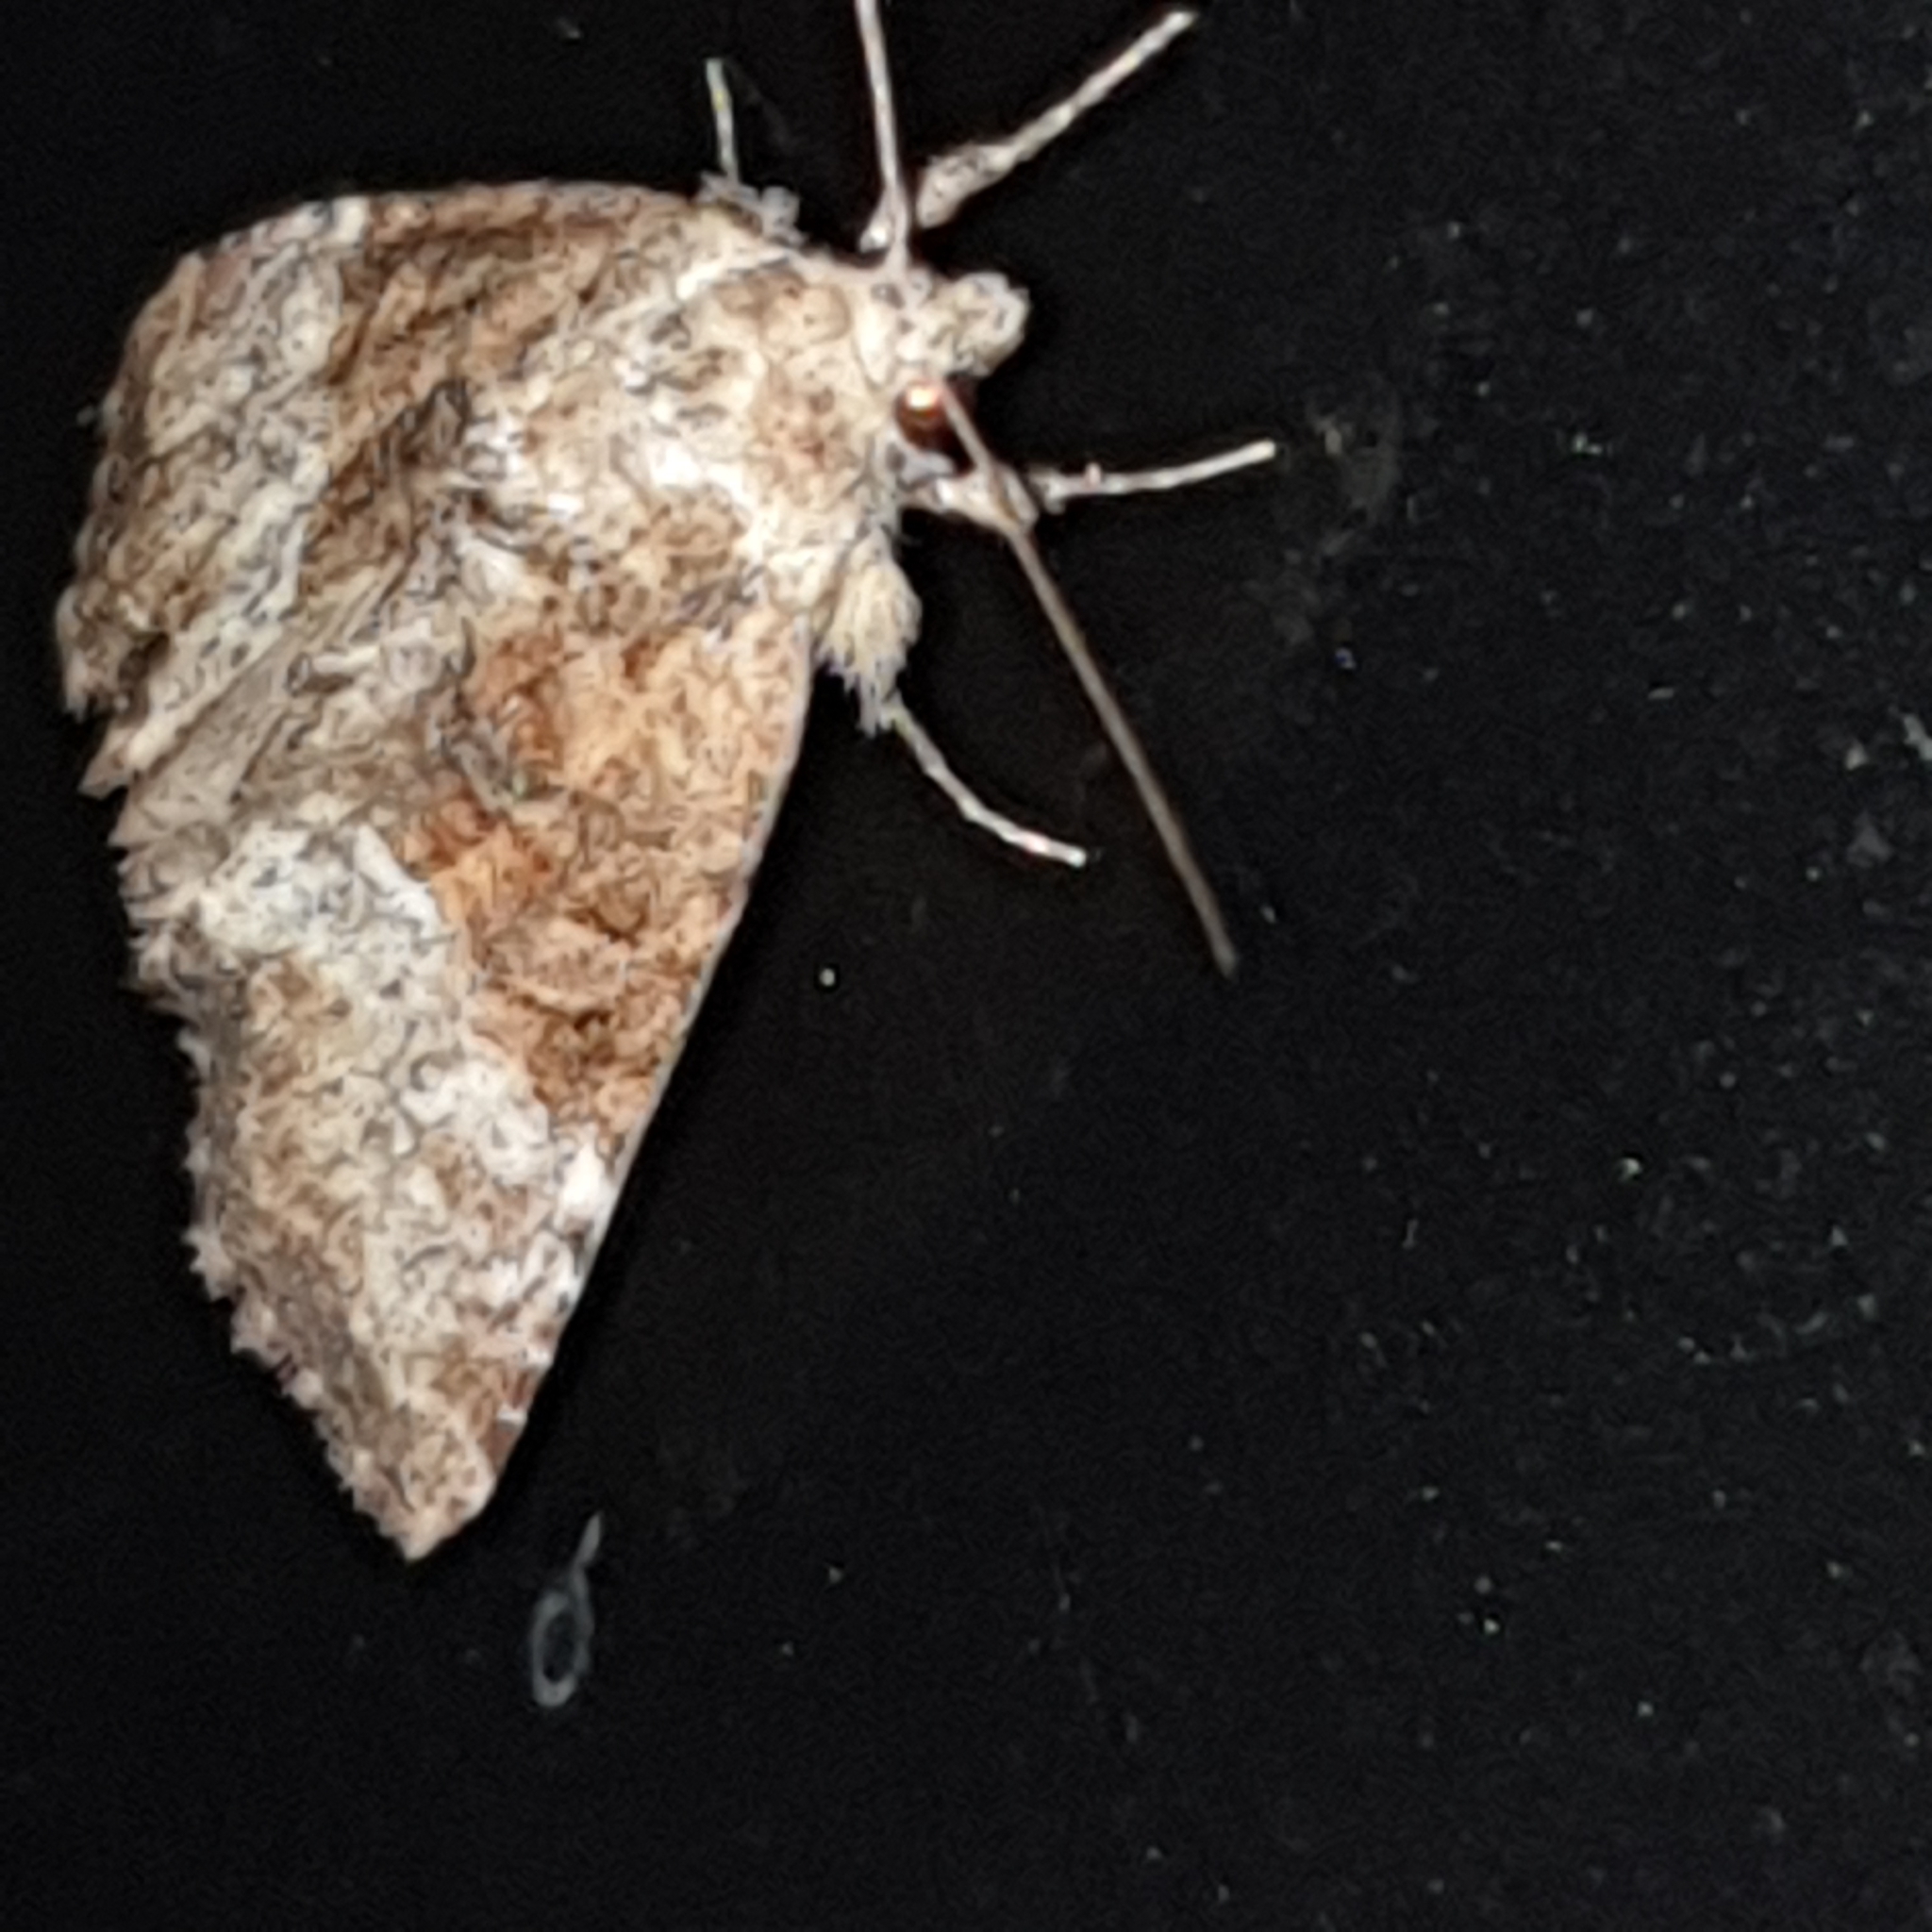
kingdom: Animalia
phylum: Arthropoda
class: Insecta
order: Lepidoptera
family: Noctuidae
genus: Mesoligia
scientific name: Mesoligia furuncula
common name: Cloaked minor
